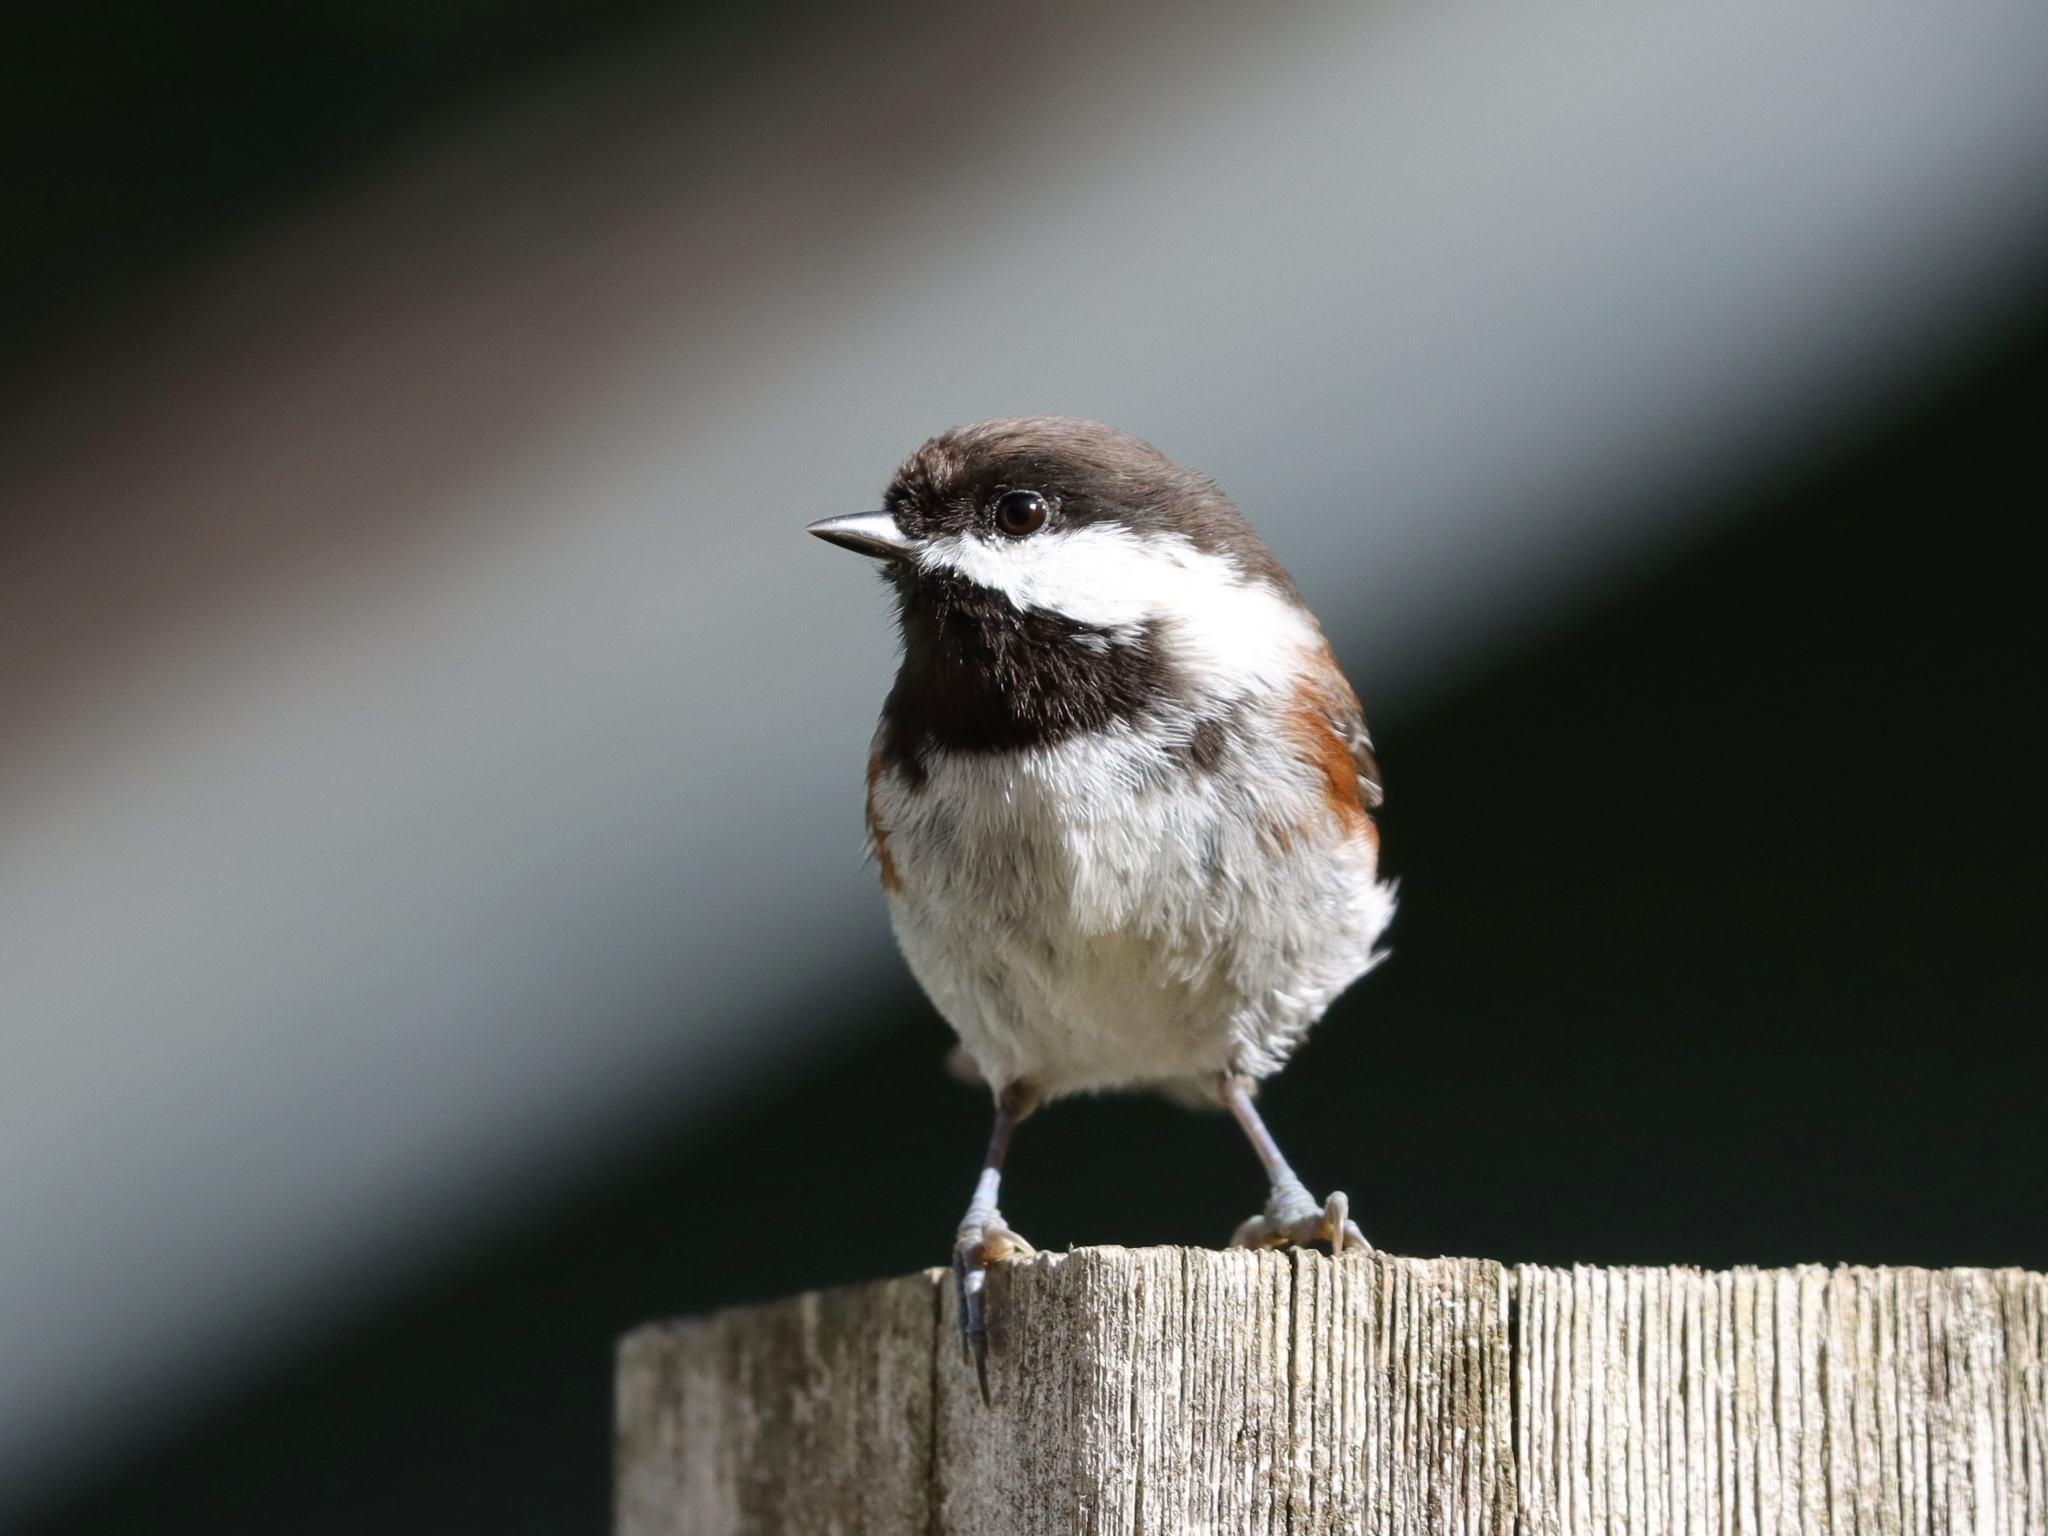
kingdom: Animalia
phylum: Chordata
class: Aves
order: Passeriformes
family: Paridae
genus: Poecile
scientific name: Poecile rufescens
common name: Chestnut-backed chickadee
